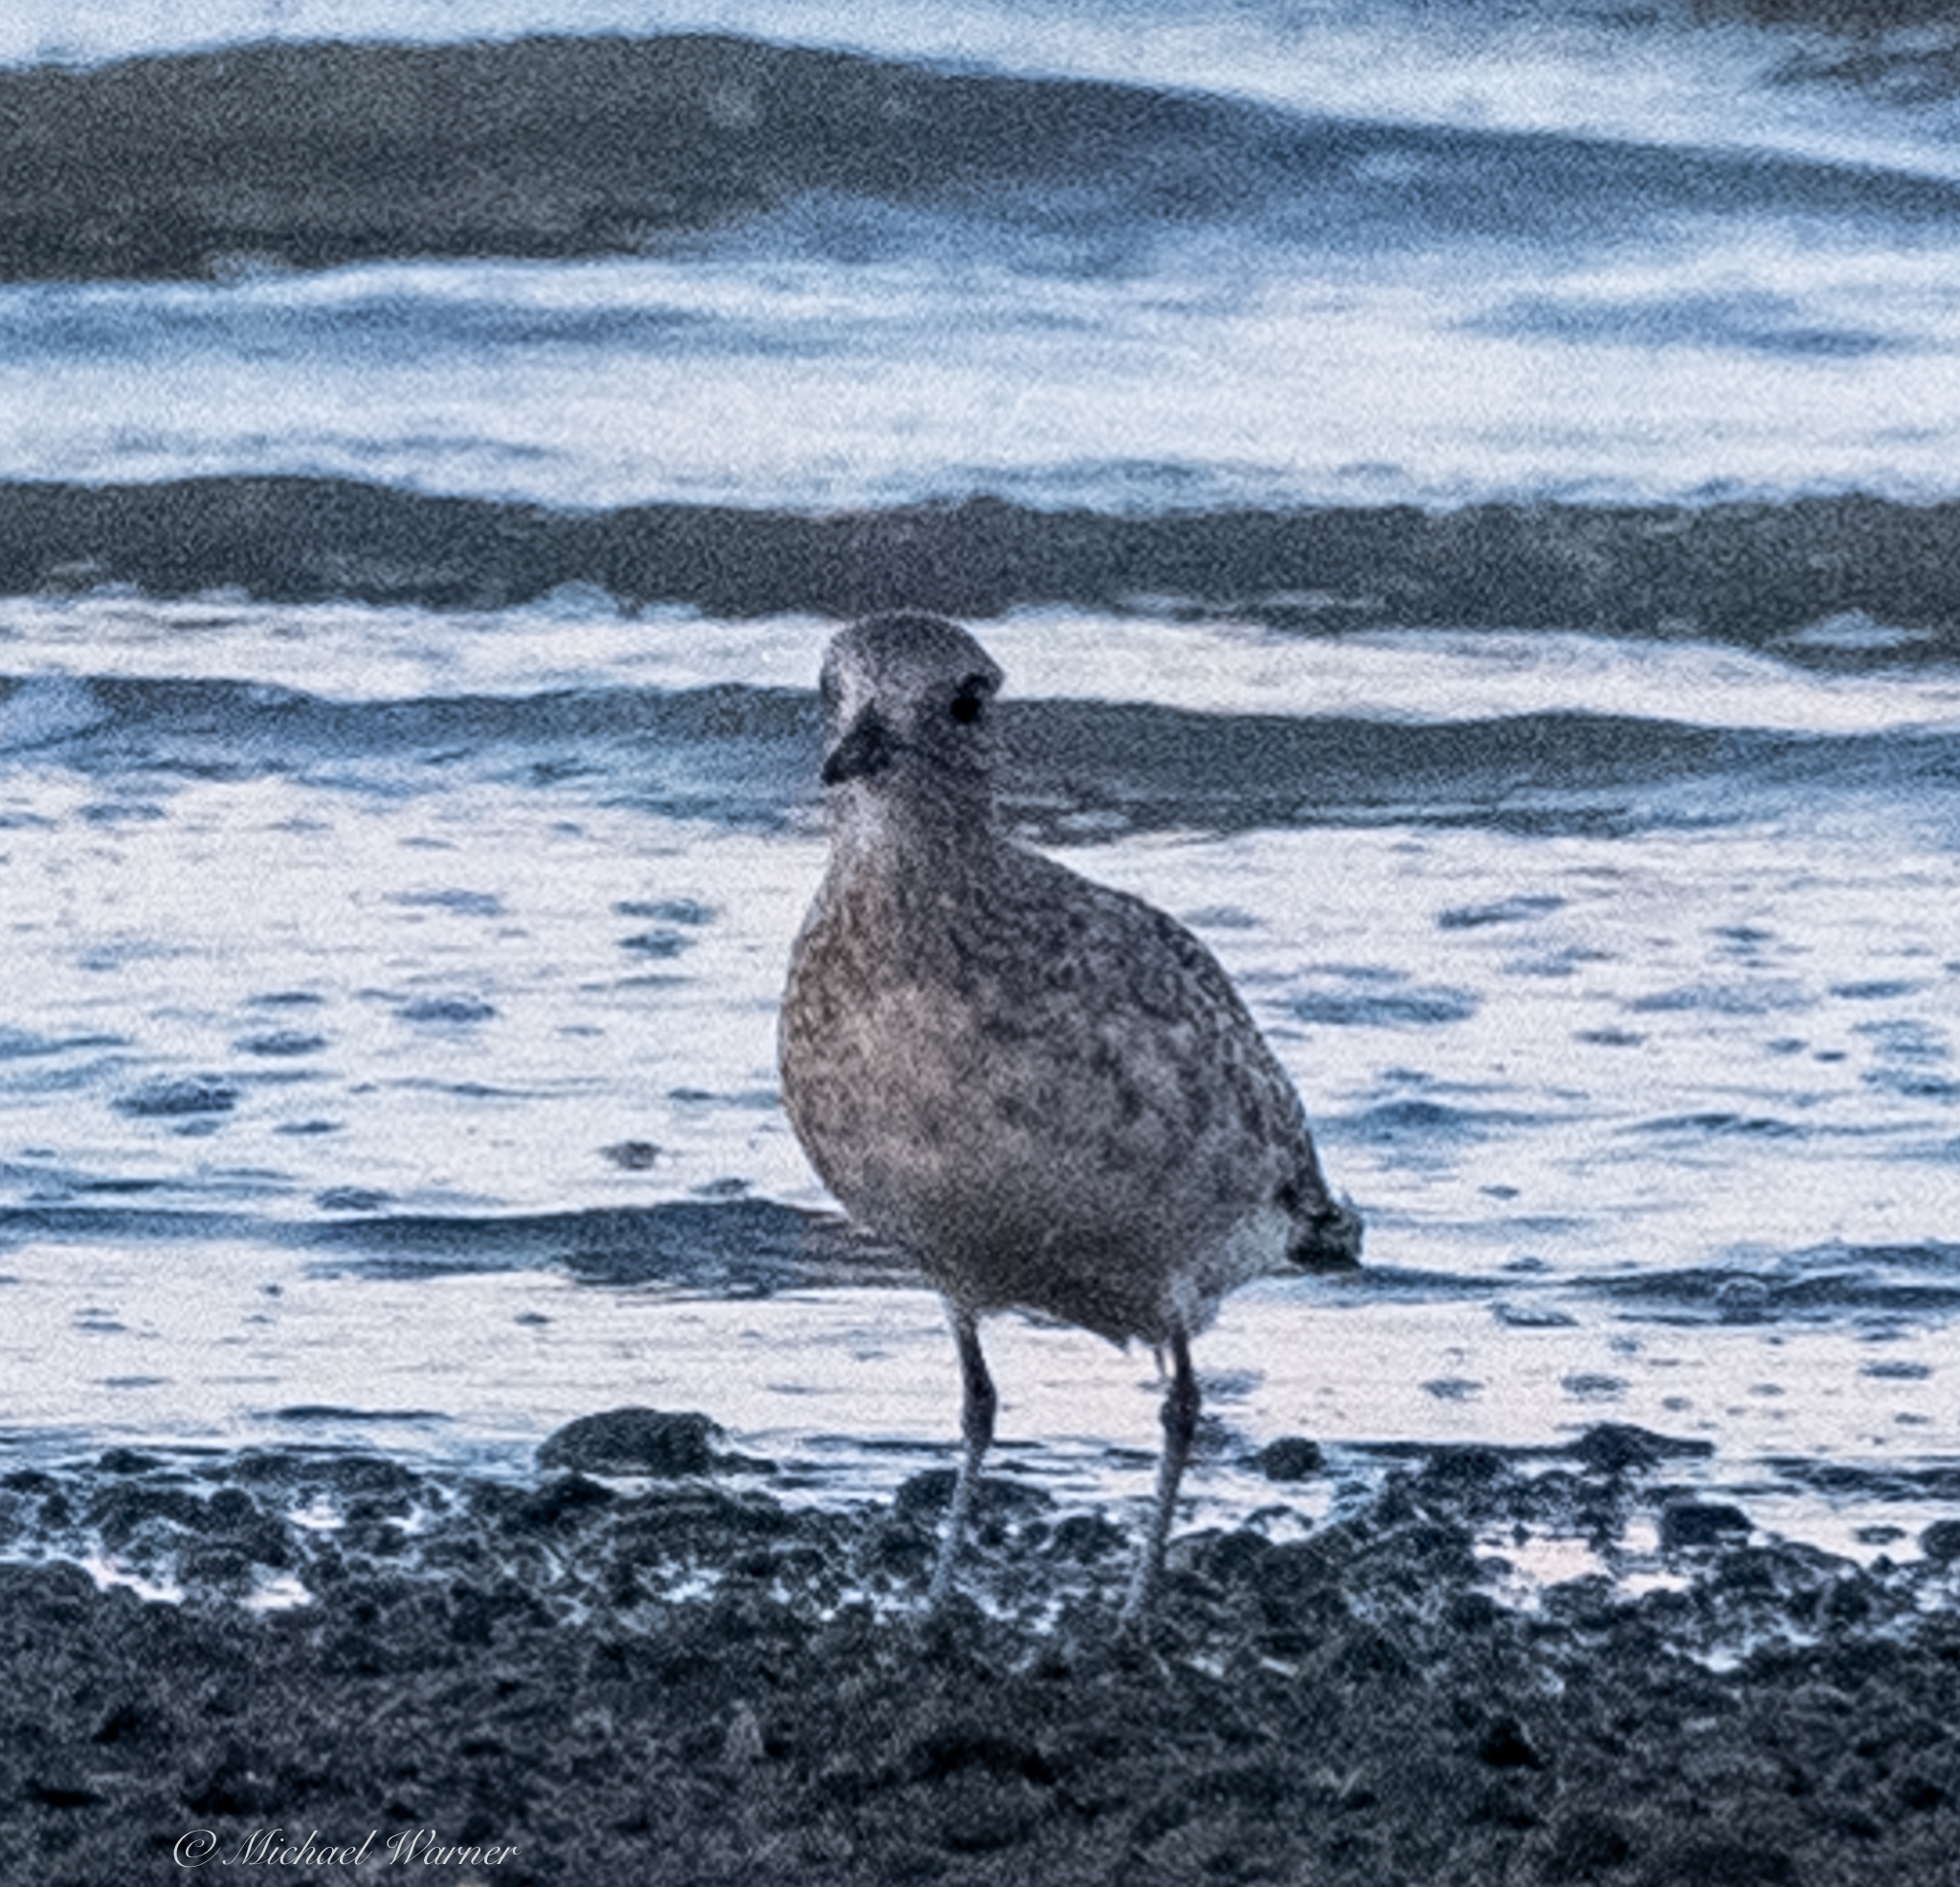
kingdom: Animalia
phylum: Chordata
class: Aves
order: Charadriiformes
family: Charadriidae
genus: Pluvialis
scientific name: Pluvialis squatarola
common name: Grey plover
